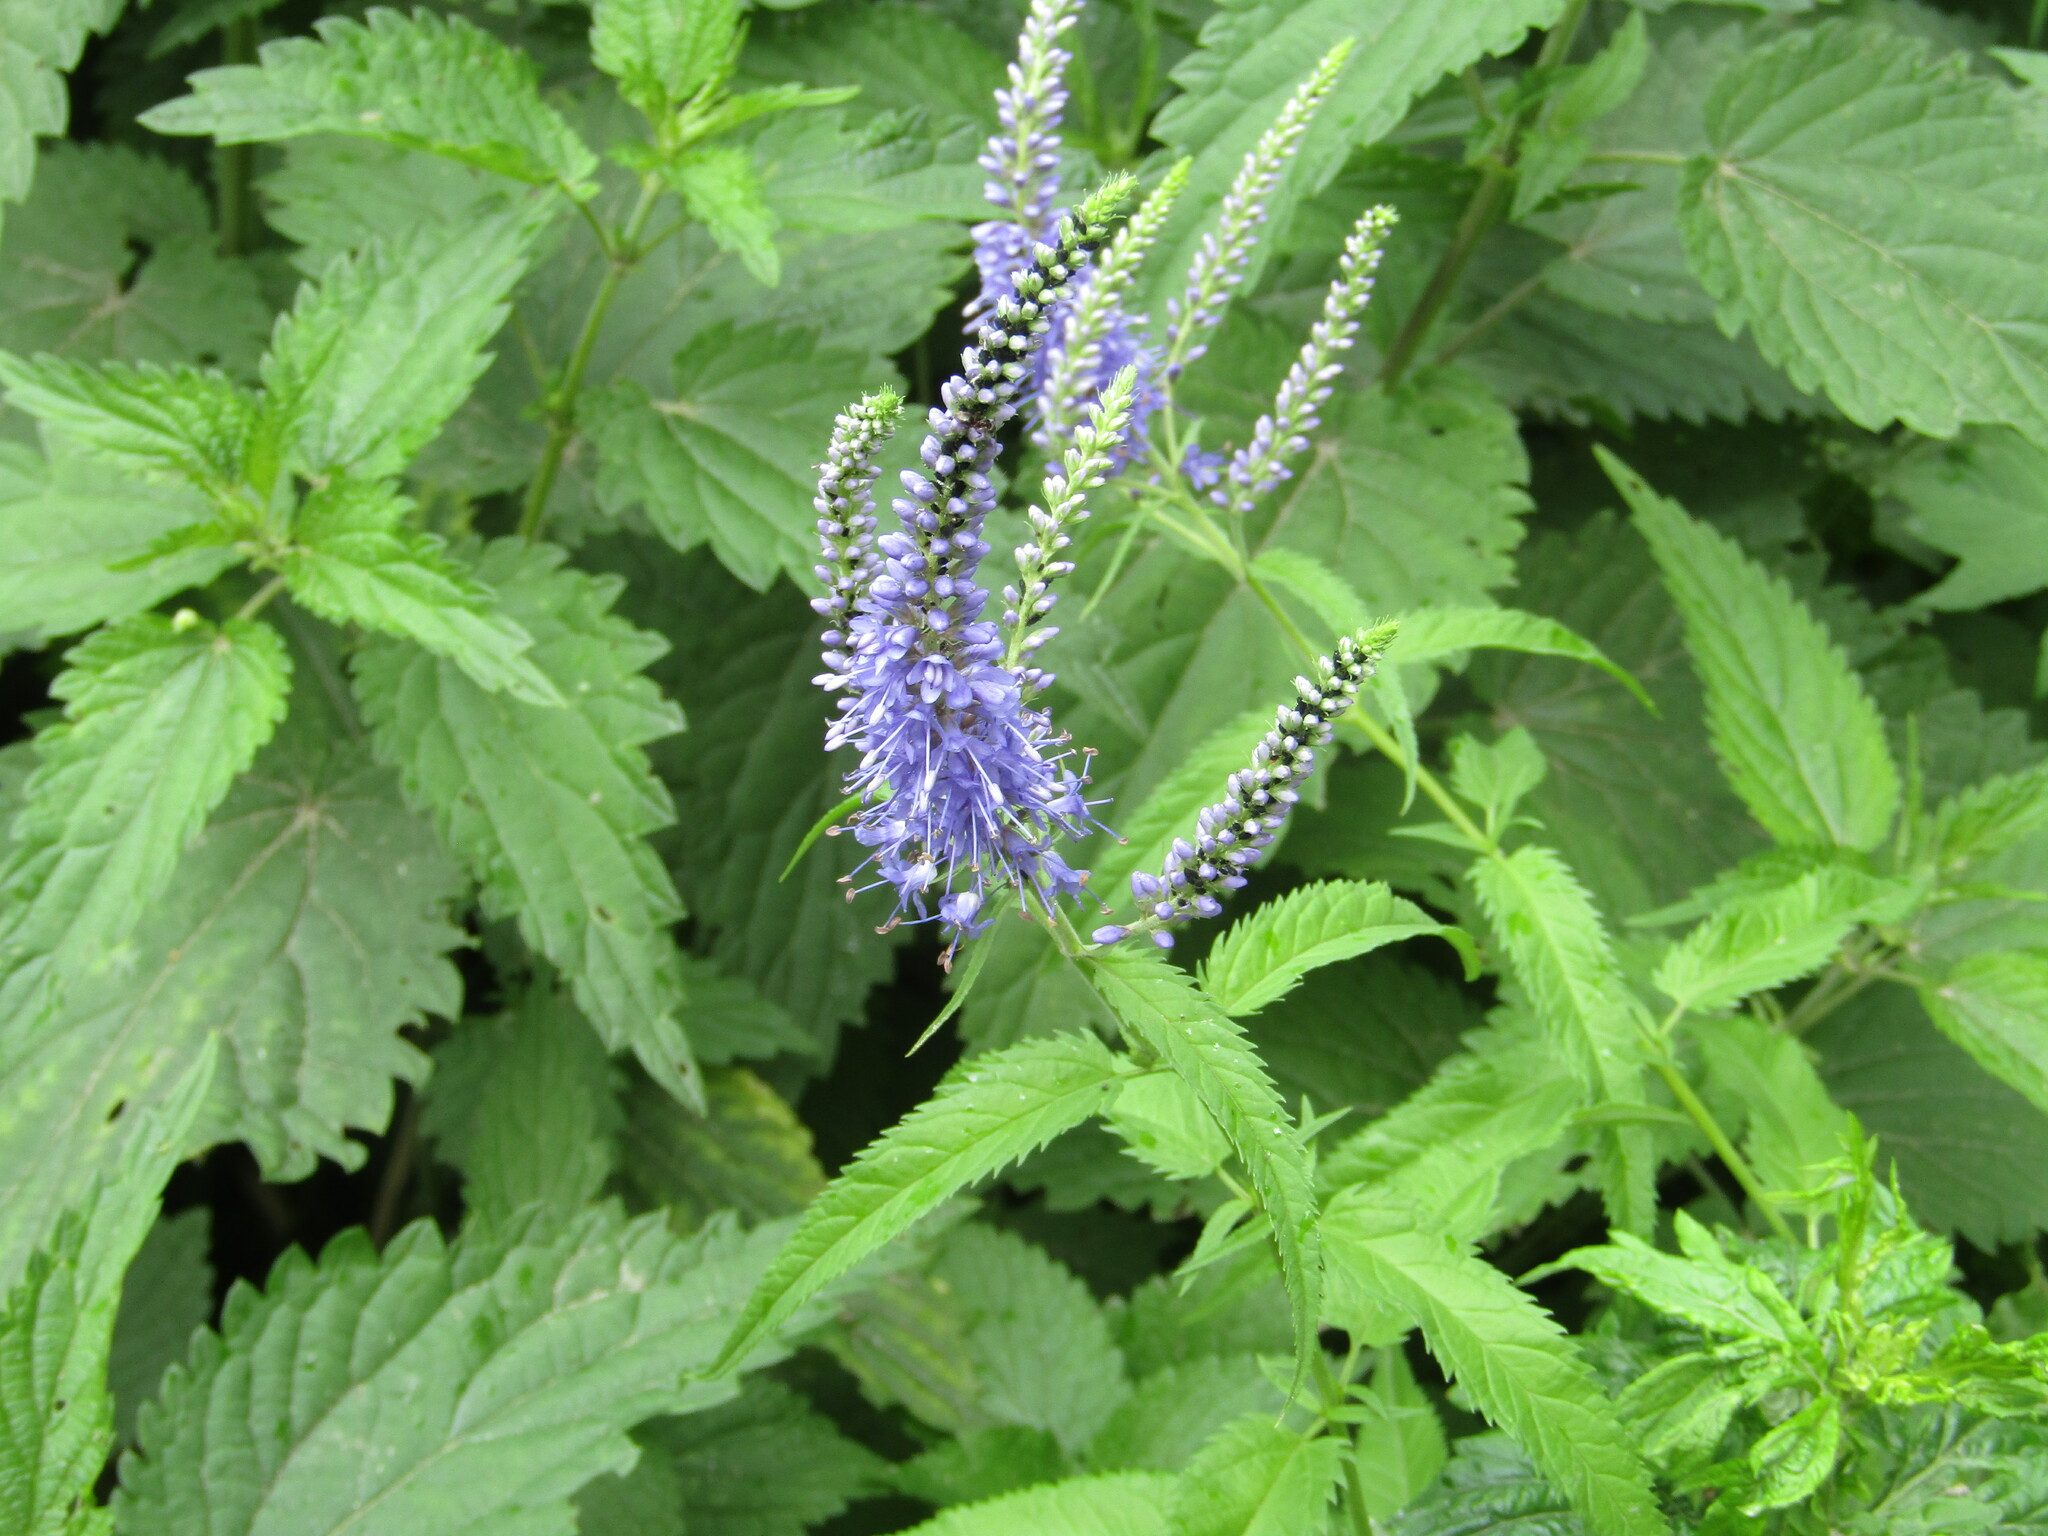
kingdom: Plantae
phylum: Tracheophyta
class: Magnoliopsida
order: Lamiales
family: Plantaginaceae
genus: Veronica
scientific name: Veronica longifolia
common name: Garden speedwell
